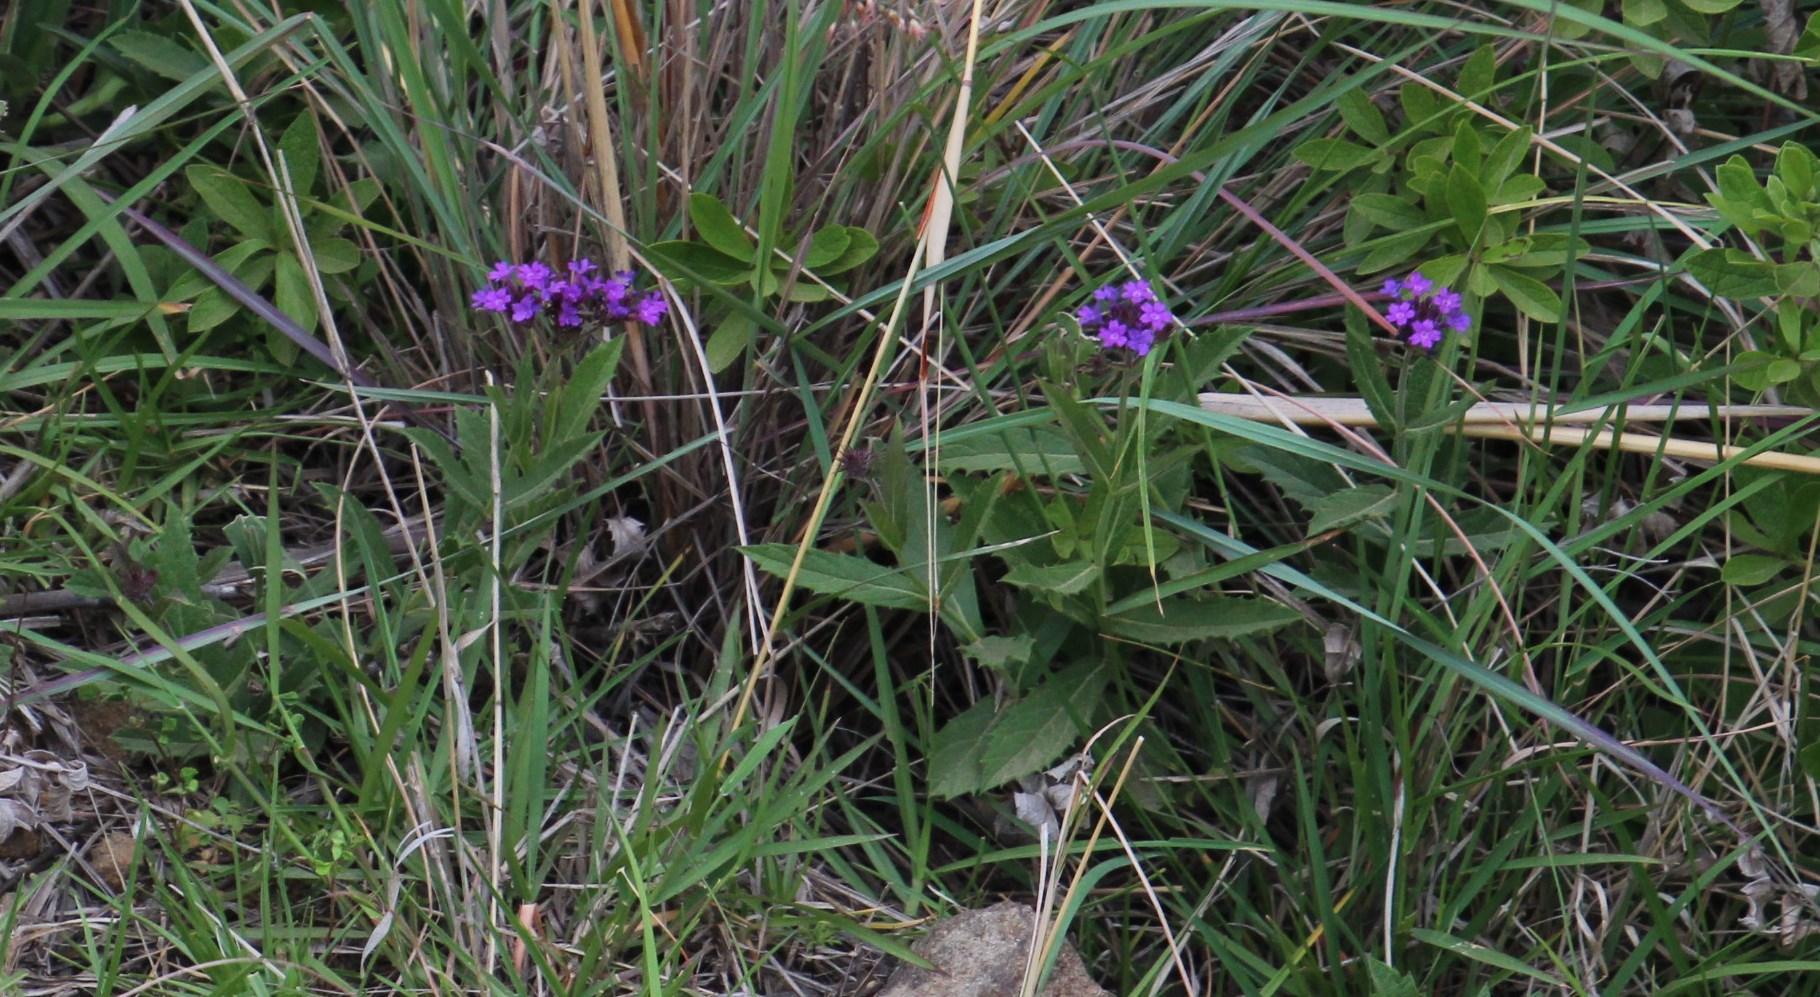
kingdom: Plantae
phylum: Tracheophyta
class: Magnoliopsida
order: Lamiales
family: Verbenaceae
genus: Verbena
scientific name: Verbena rigida
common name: Slender vervain
